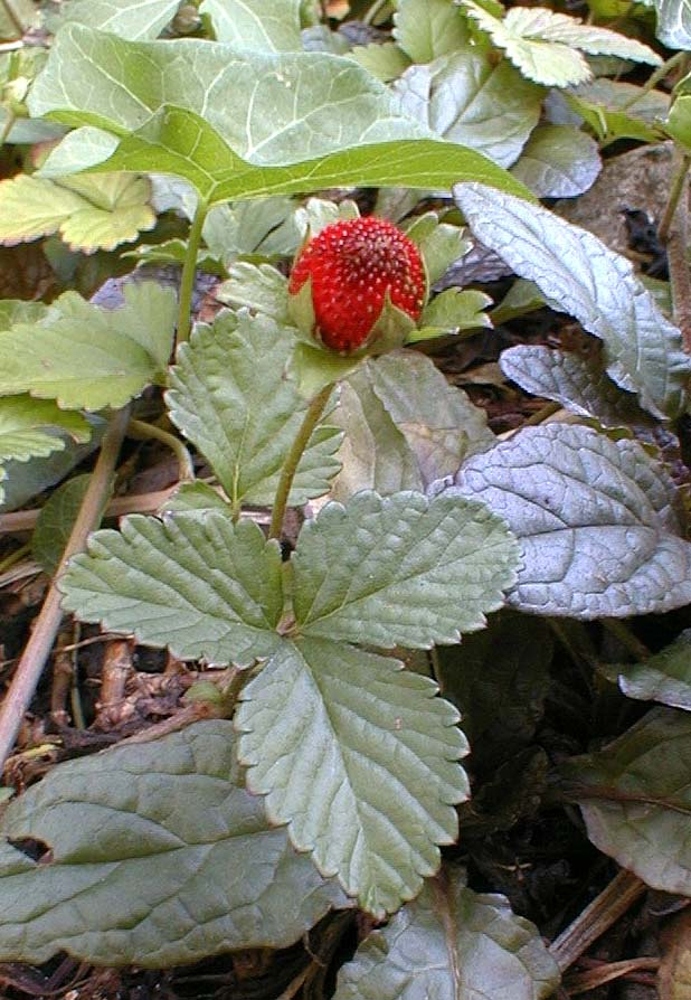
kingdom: Plantae
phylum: Tracheophyta
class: Magnoliopsida
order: Rosales
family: Rosaceae
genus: Potentilla
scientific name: Potentilla indica
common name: Yellow-flowered strawberry
